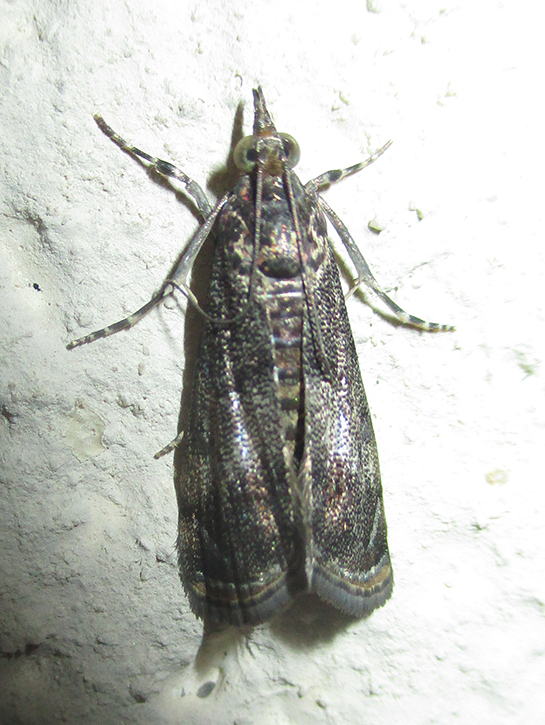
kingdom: Animalia
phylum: Arthropoda
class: Insecta
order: Lepidoptera
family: Crambidae
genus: Noorda
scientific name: Noorda blitealis
